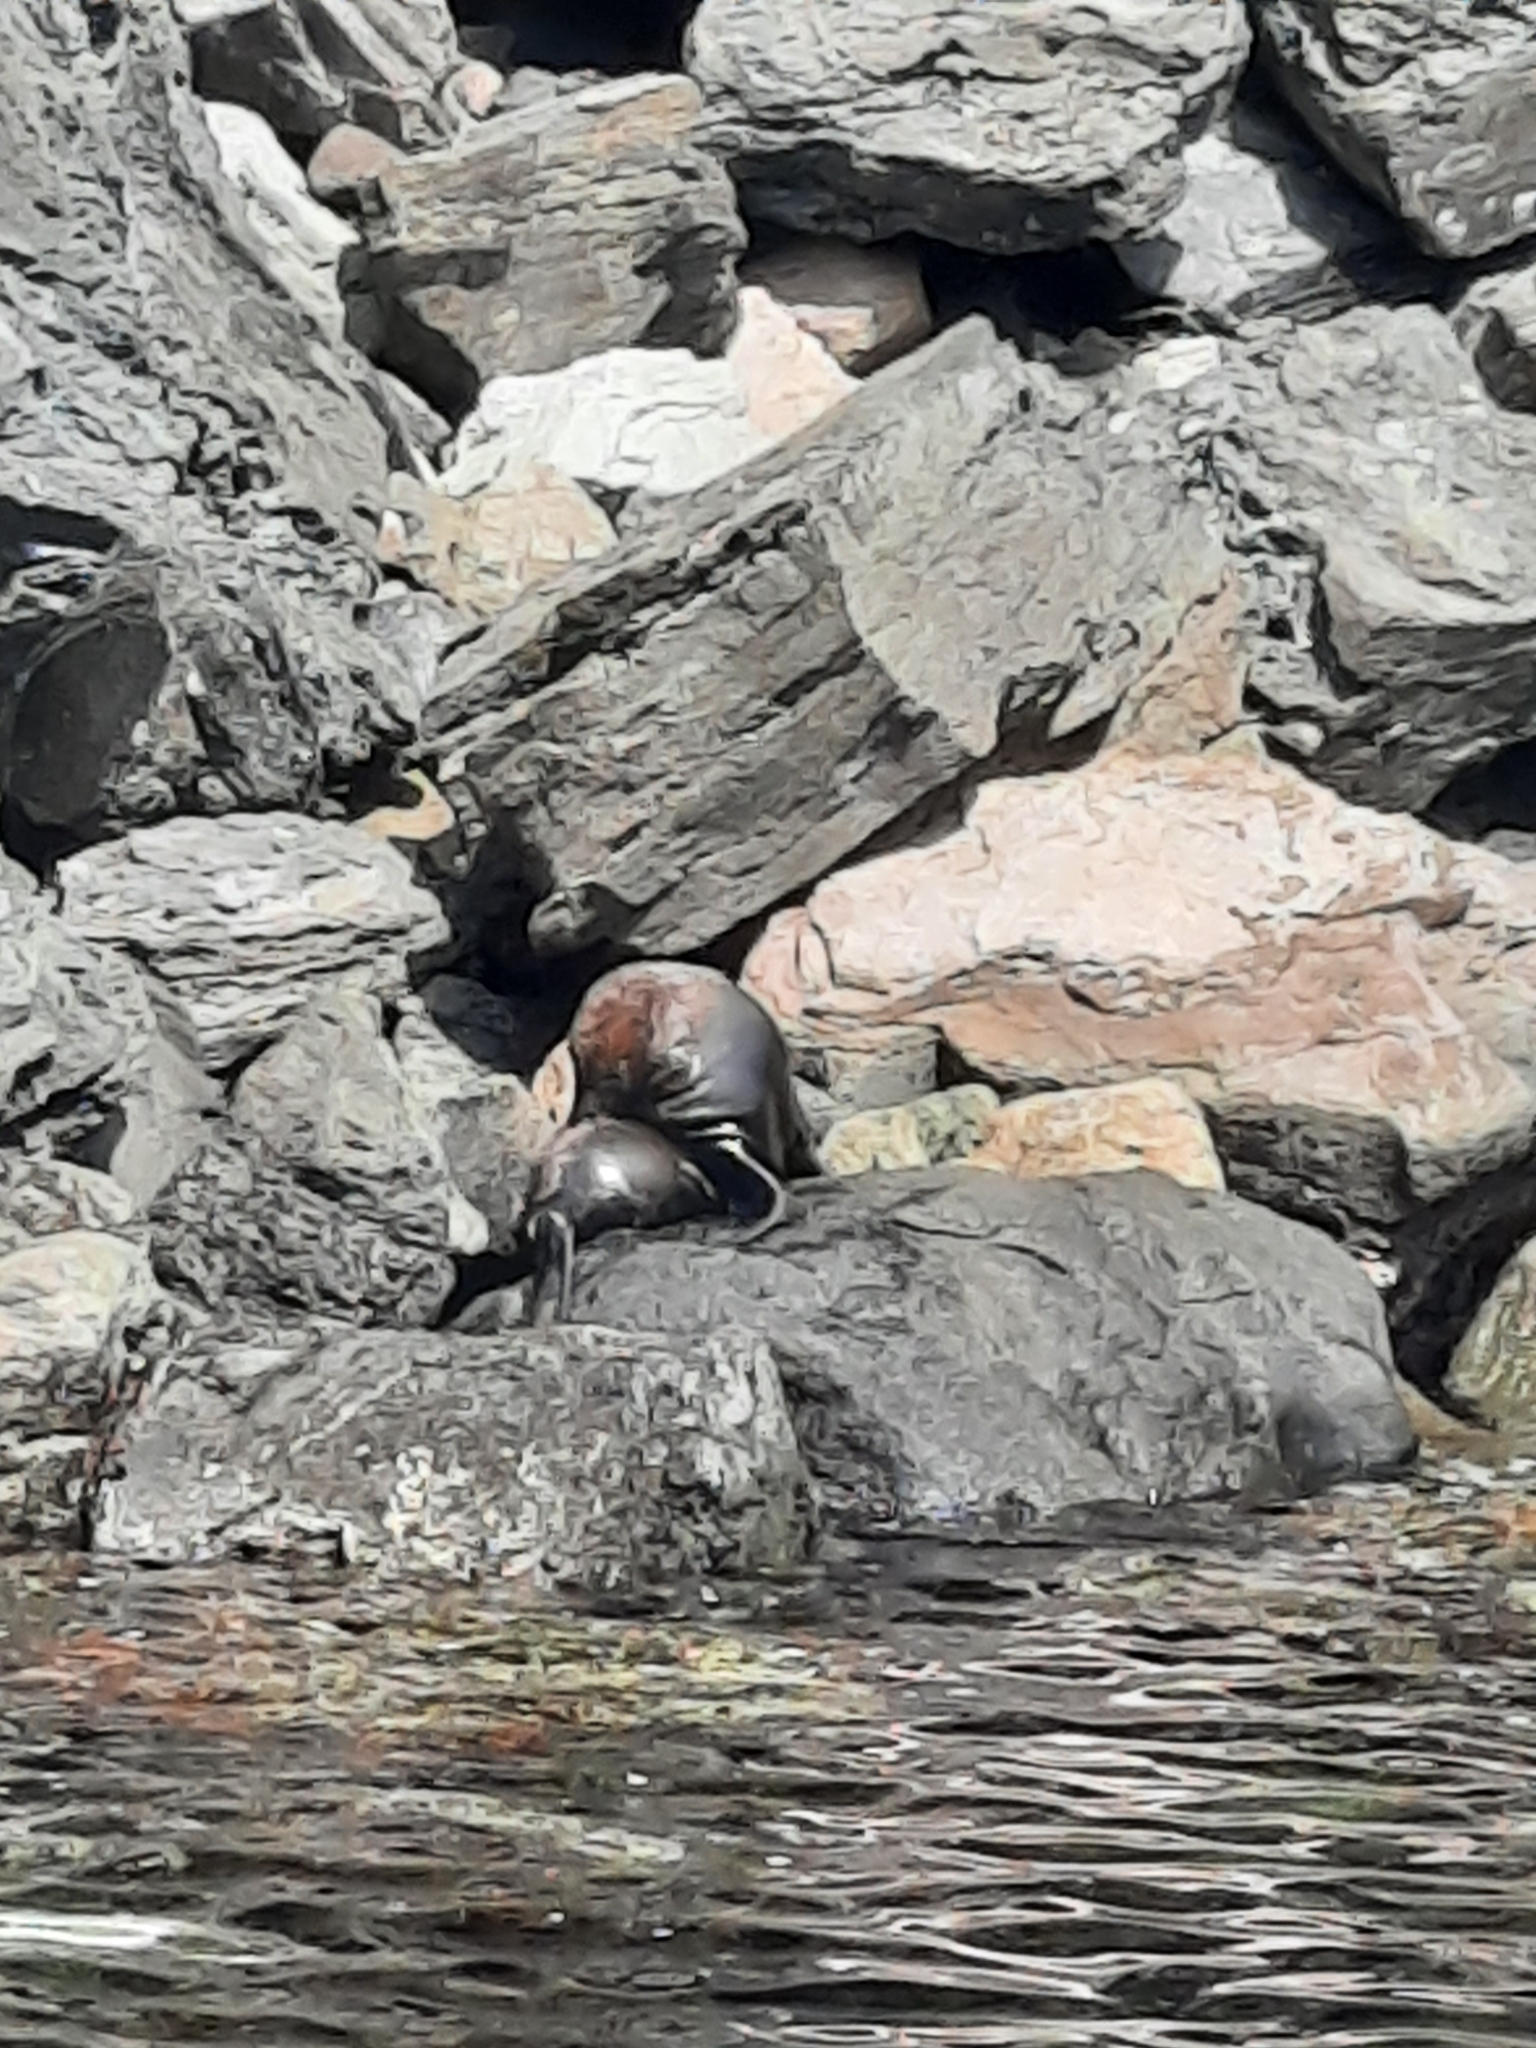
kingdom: Animalia
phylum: Chordata
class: Mammalia
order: Carnivora
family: Otariidae
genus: Arctocephalus
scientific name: Arctocephalus forsteri
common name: New zealand fur seal
